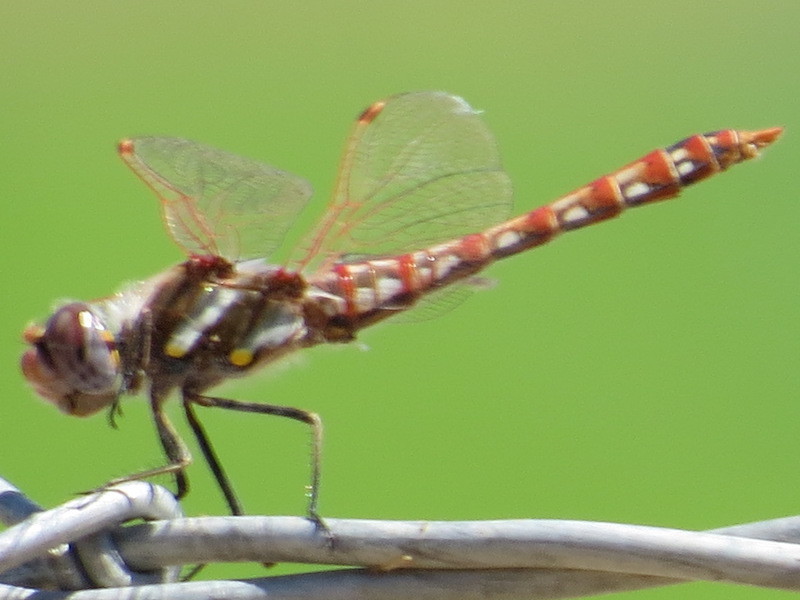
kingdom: Animalia
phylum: Arthropoda
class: Insecta
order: Odonata
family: Libellulidae
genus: Sympetrum
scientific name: Sympetrum corruptum
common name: Variegated meadowhawk
